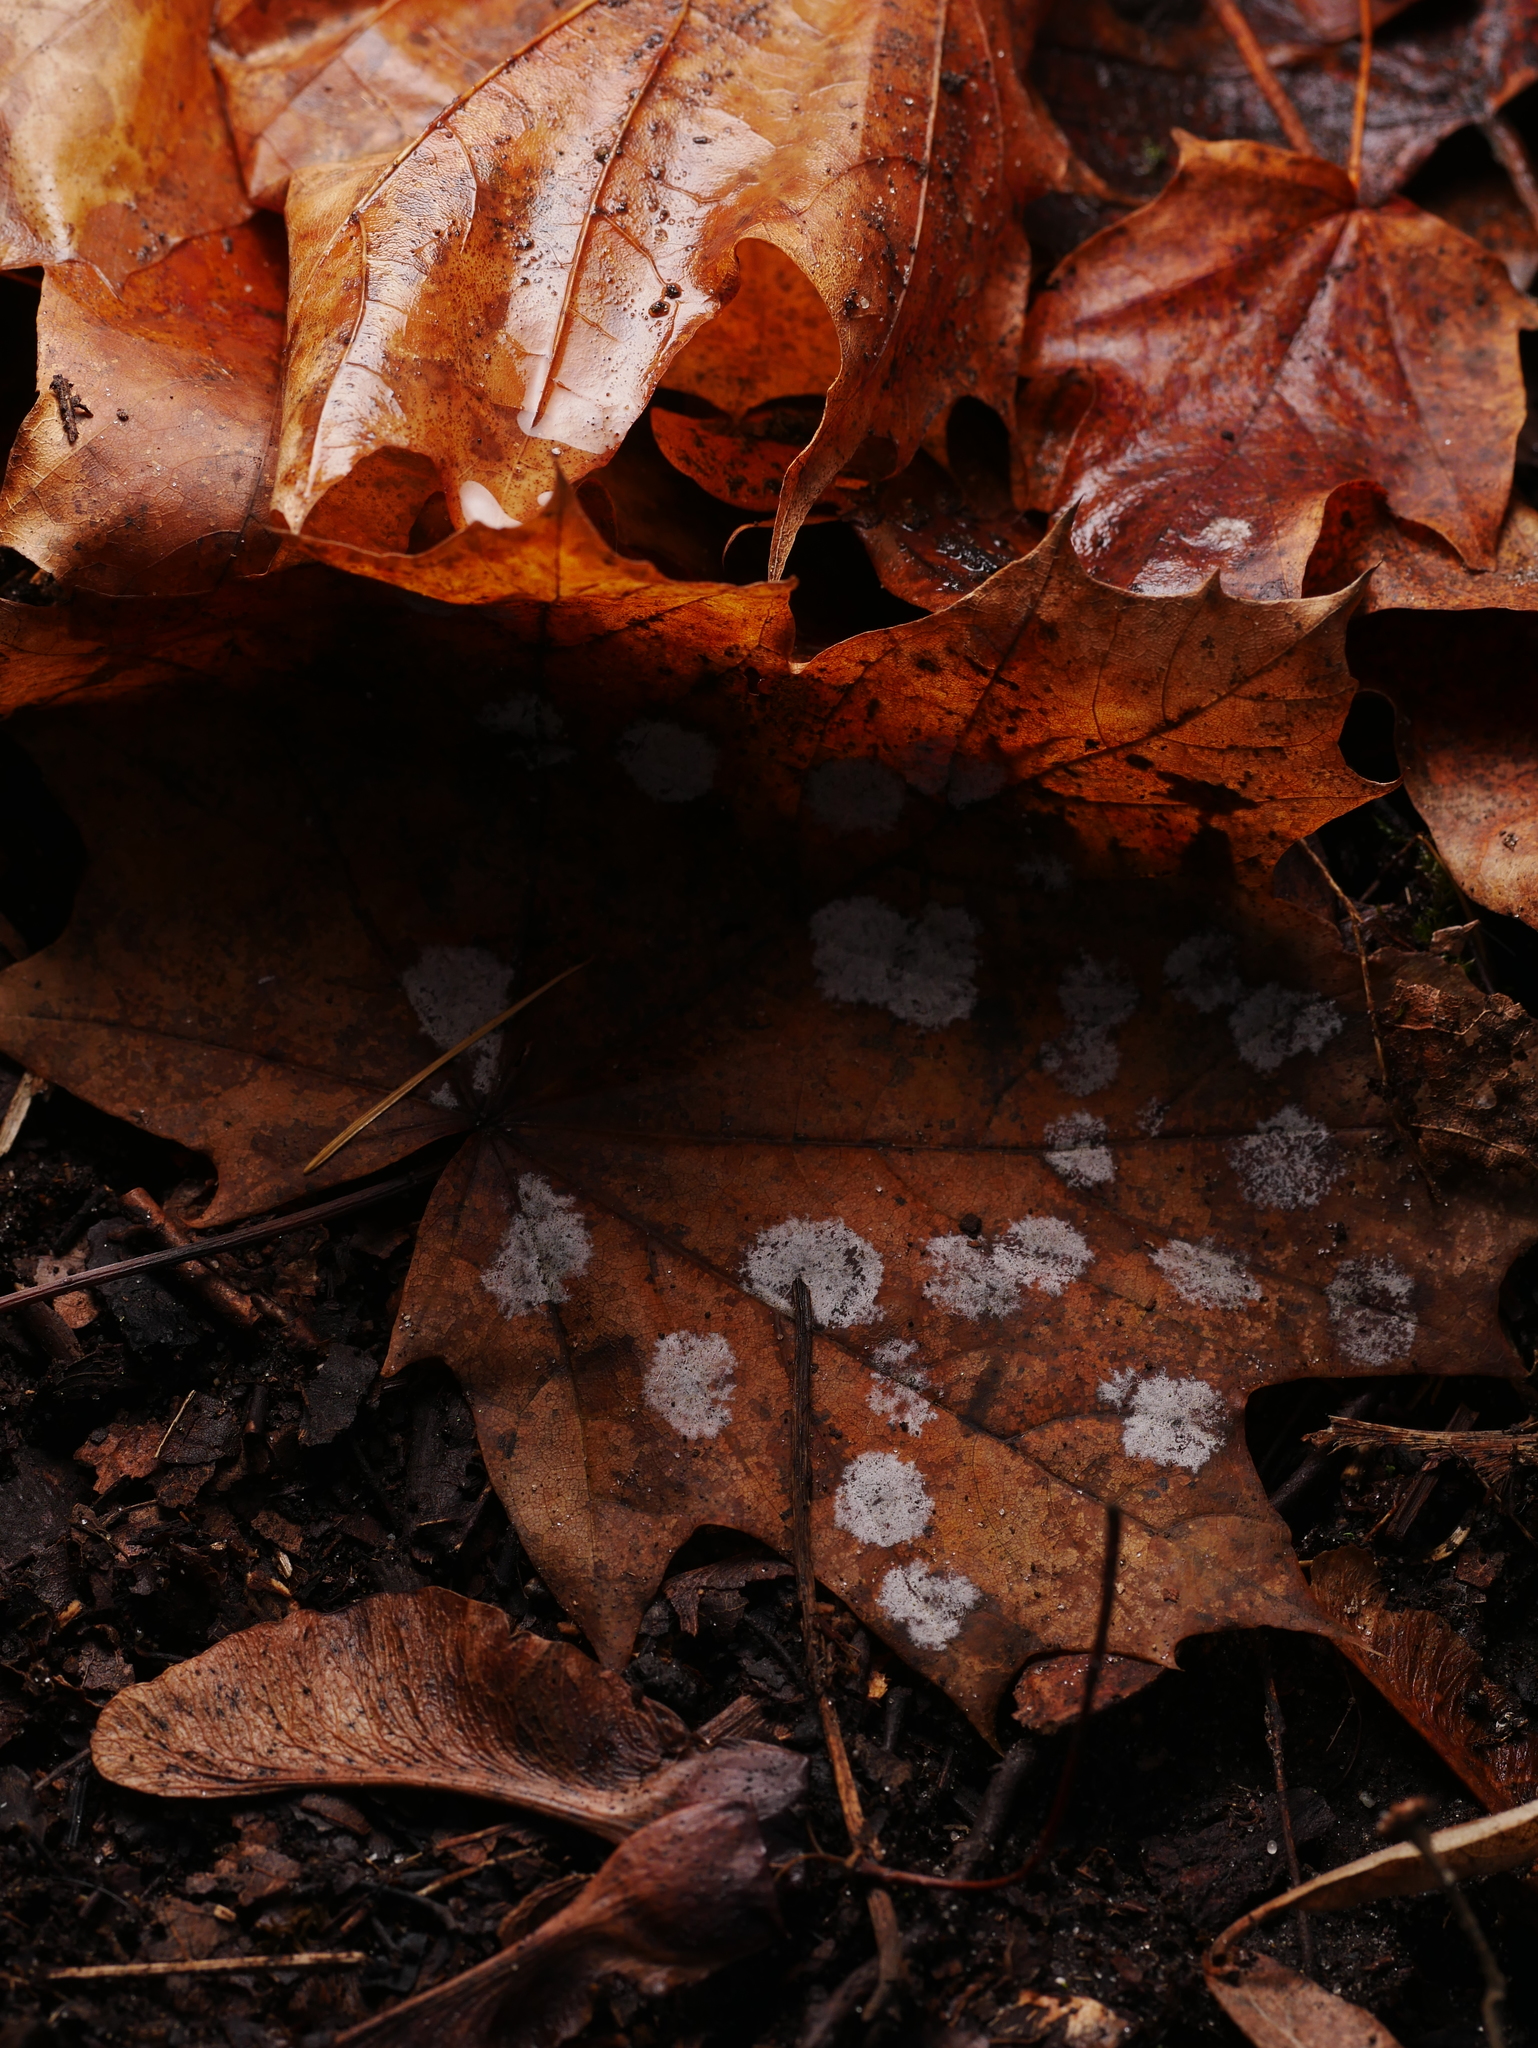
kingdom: Fungi
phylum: Ascomycota
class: Leotiomycetes
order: Helotiales
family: Erysiphaceae
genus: Sawadaea
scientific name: Sawadaea tulasnei
